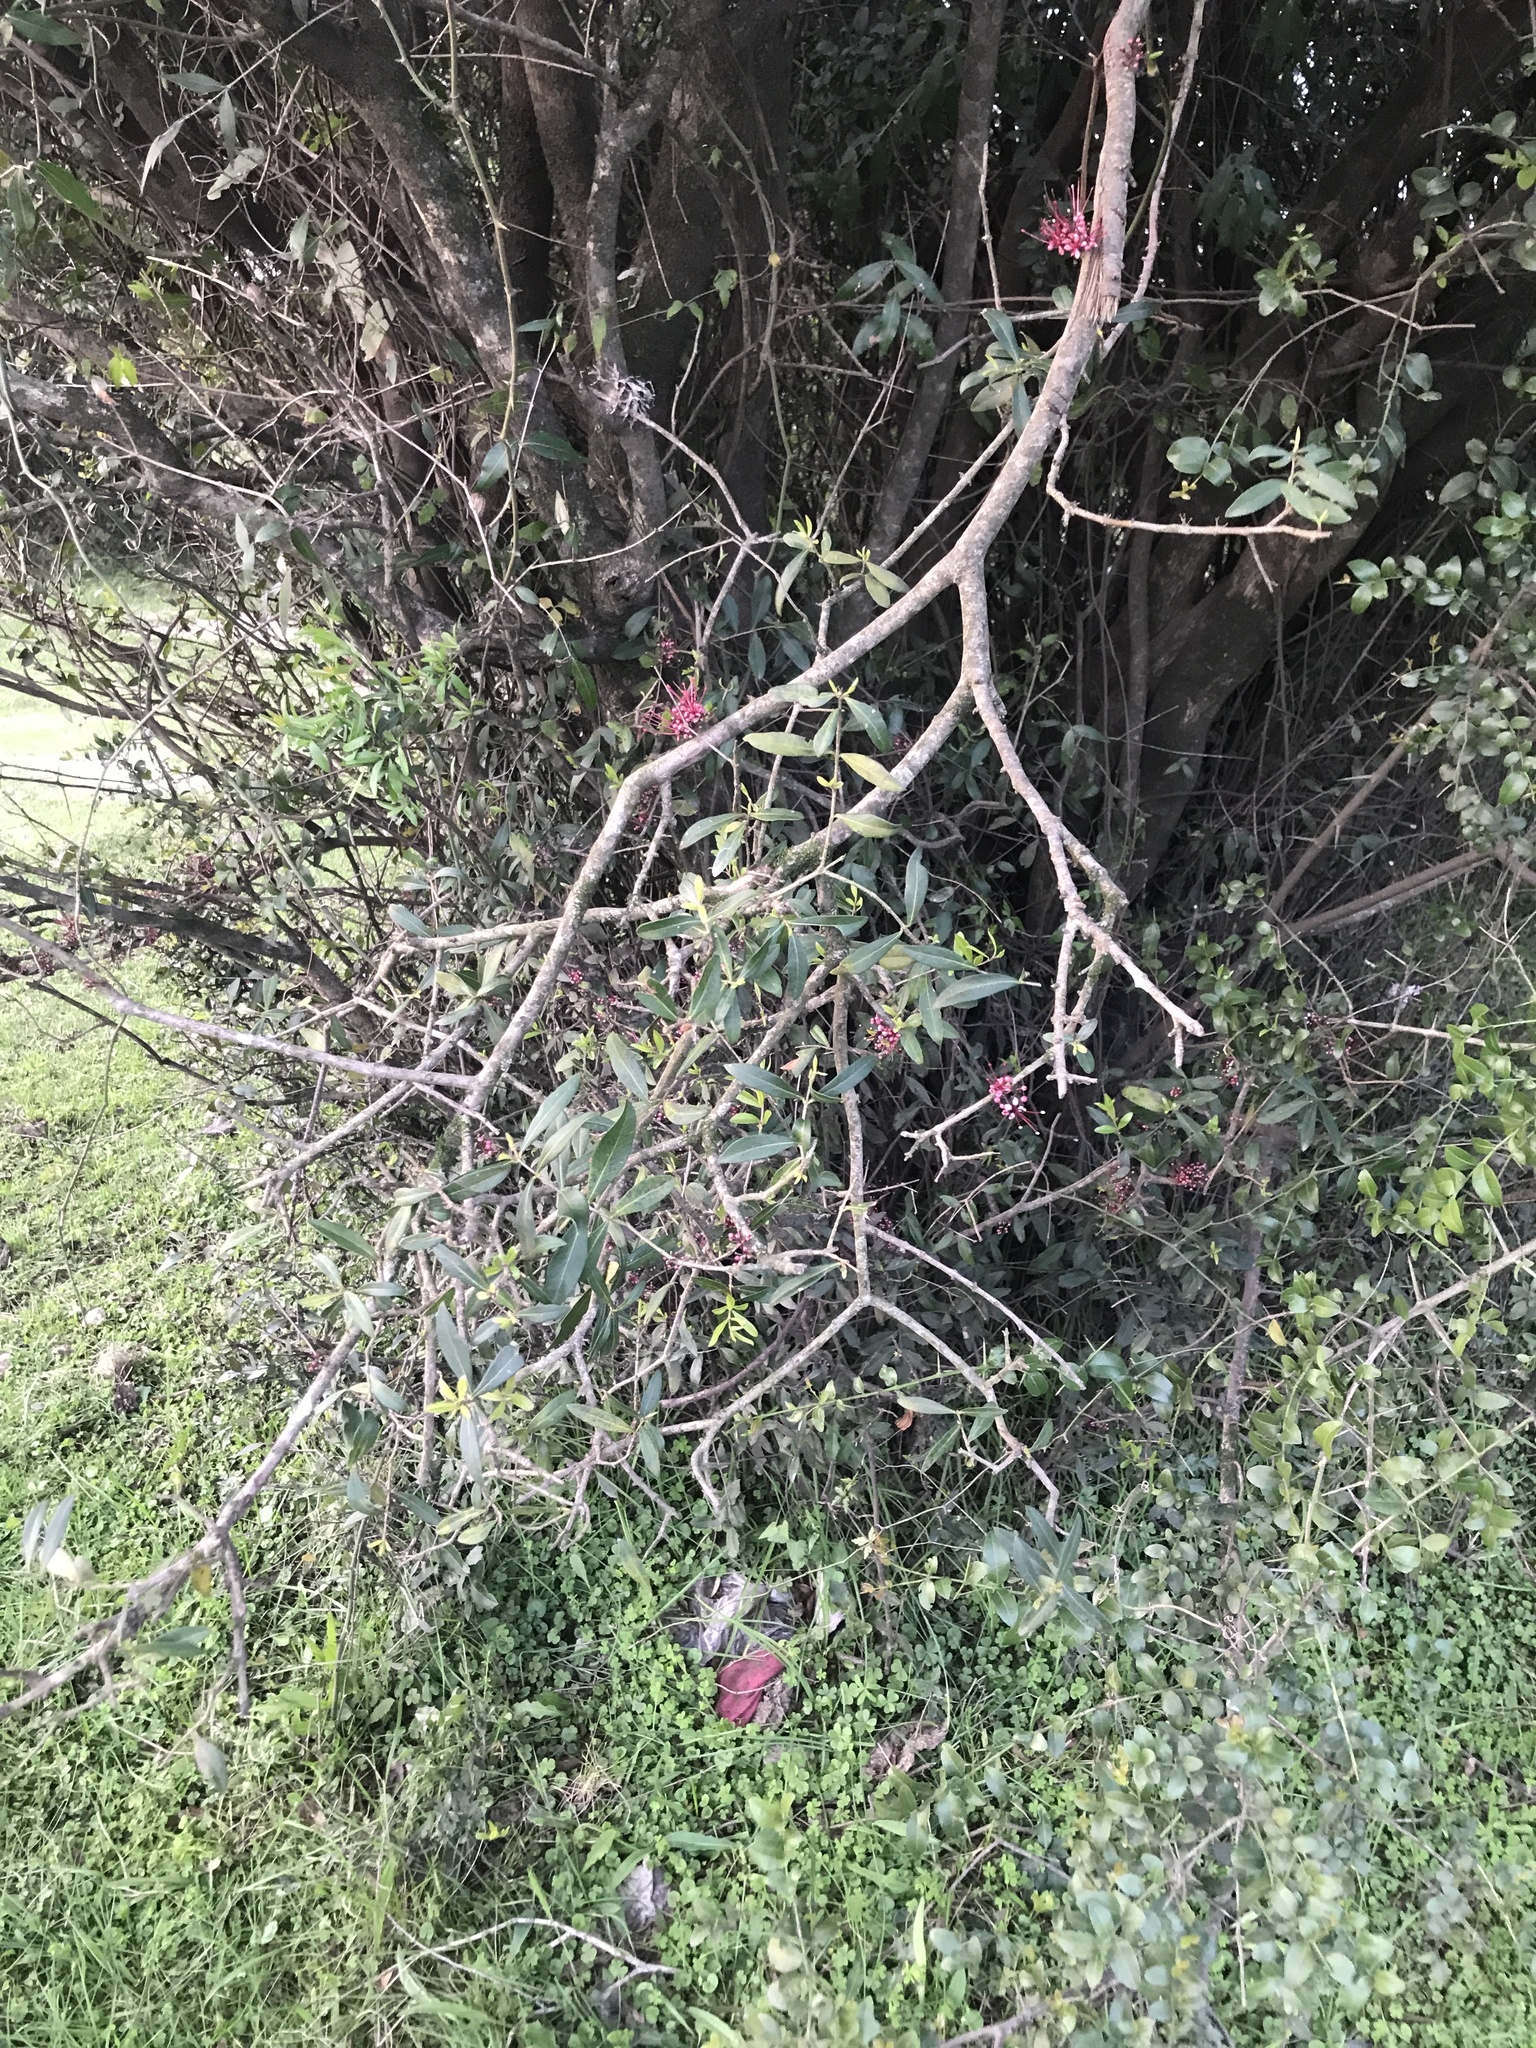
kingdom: Plantae
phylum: Tracheophyta
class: Magnoliopsida
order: Myrtales
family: Myrtaceae
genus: Myrrhinium
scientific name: Myrrhinium atropurpureum
